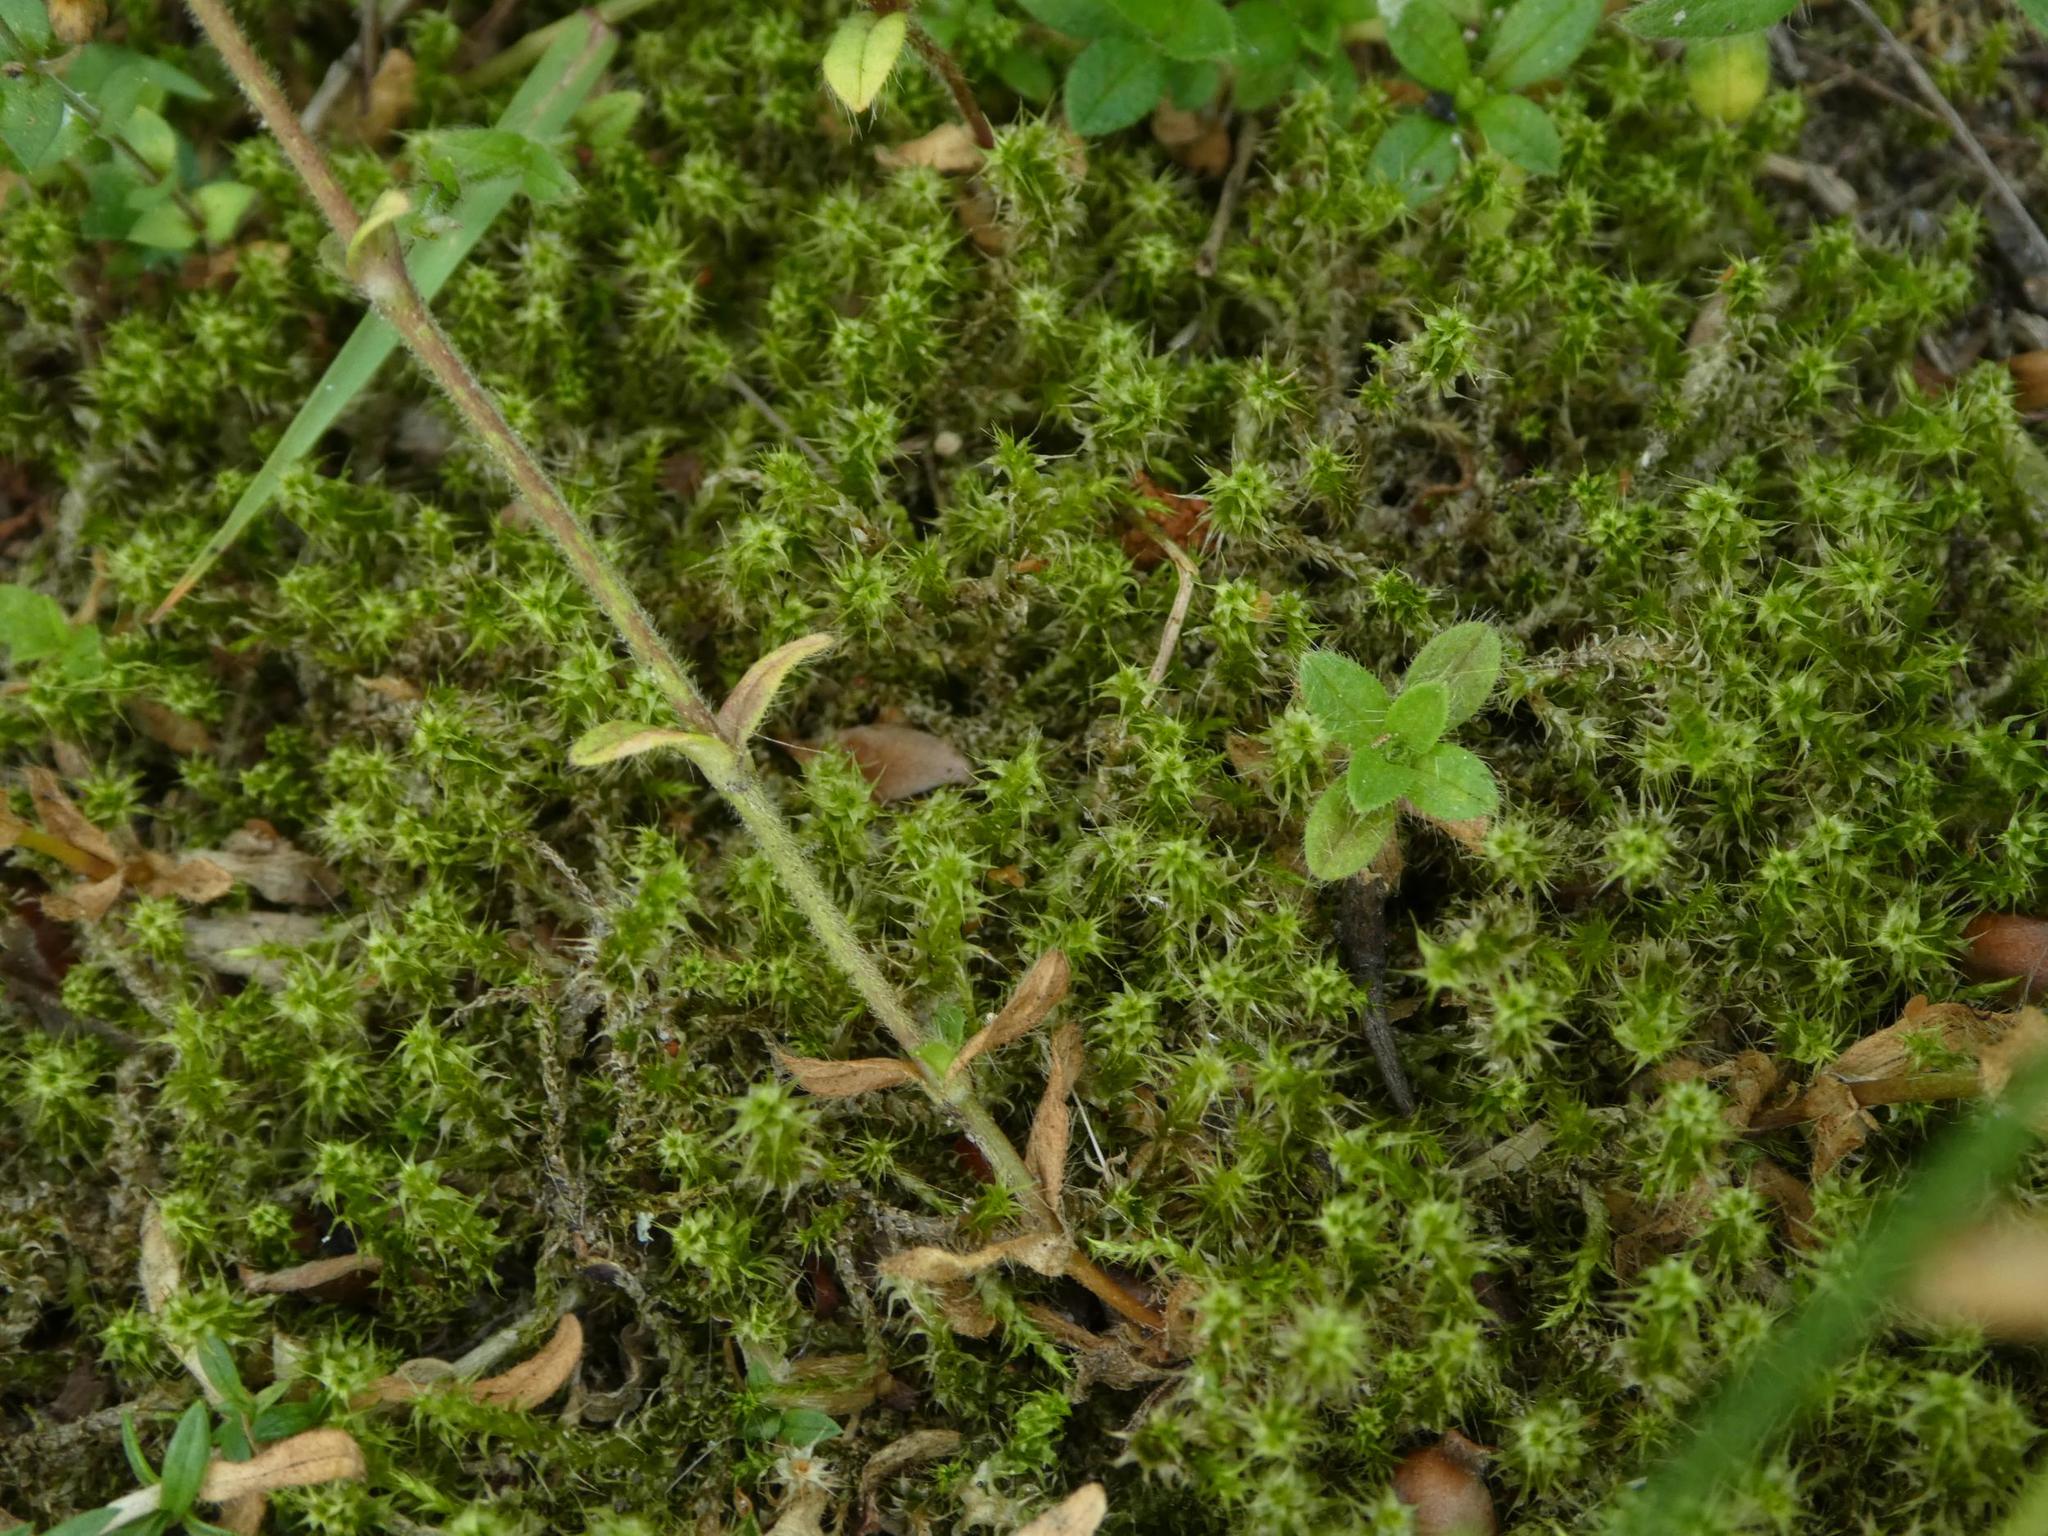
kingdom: Plantae
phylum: Bryophyta
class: Bryopsida
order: Hypnales
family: Hylocomiaceae
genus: Rhytidiadelphus
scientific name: Rhytidiadelphus squarrosus
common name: Springy turf-moss
